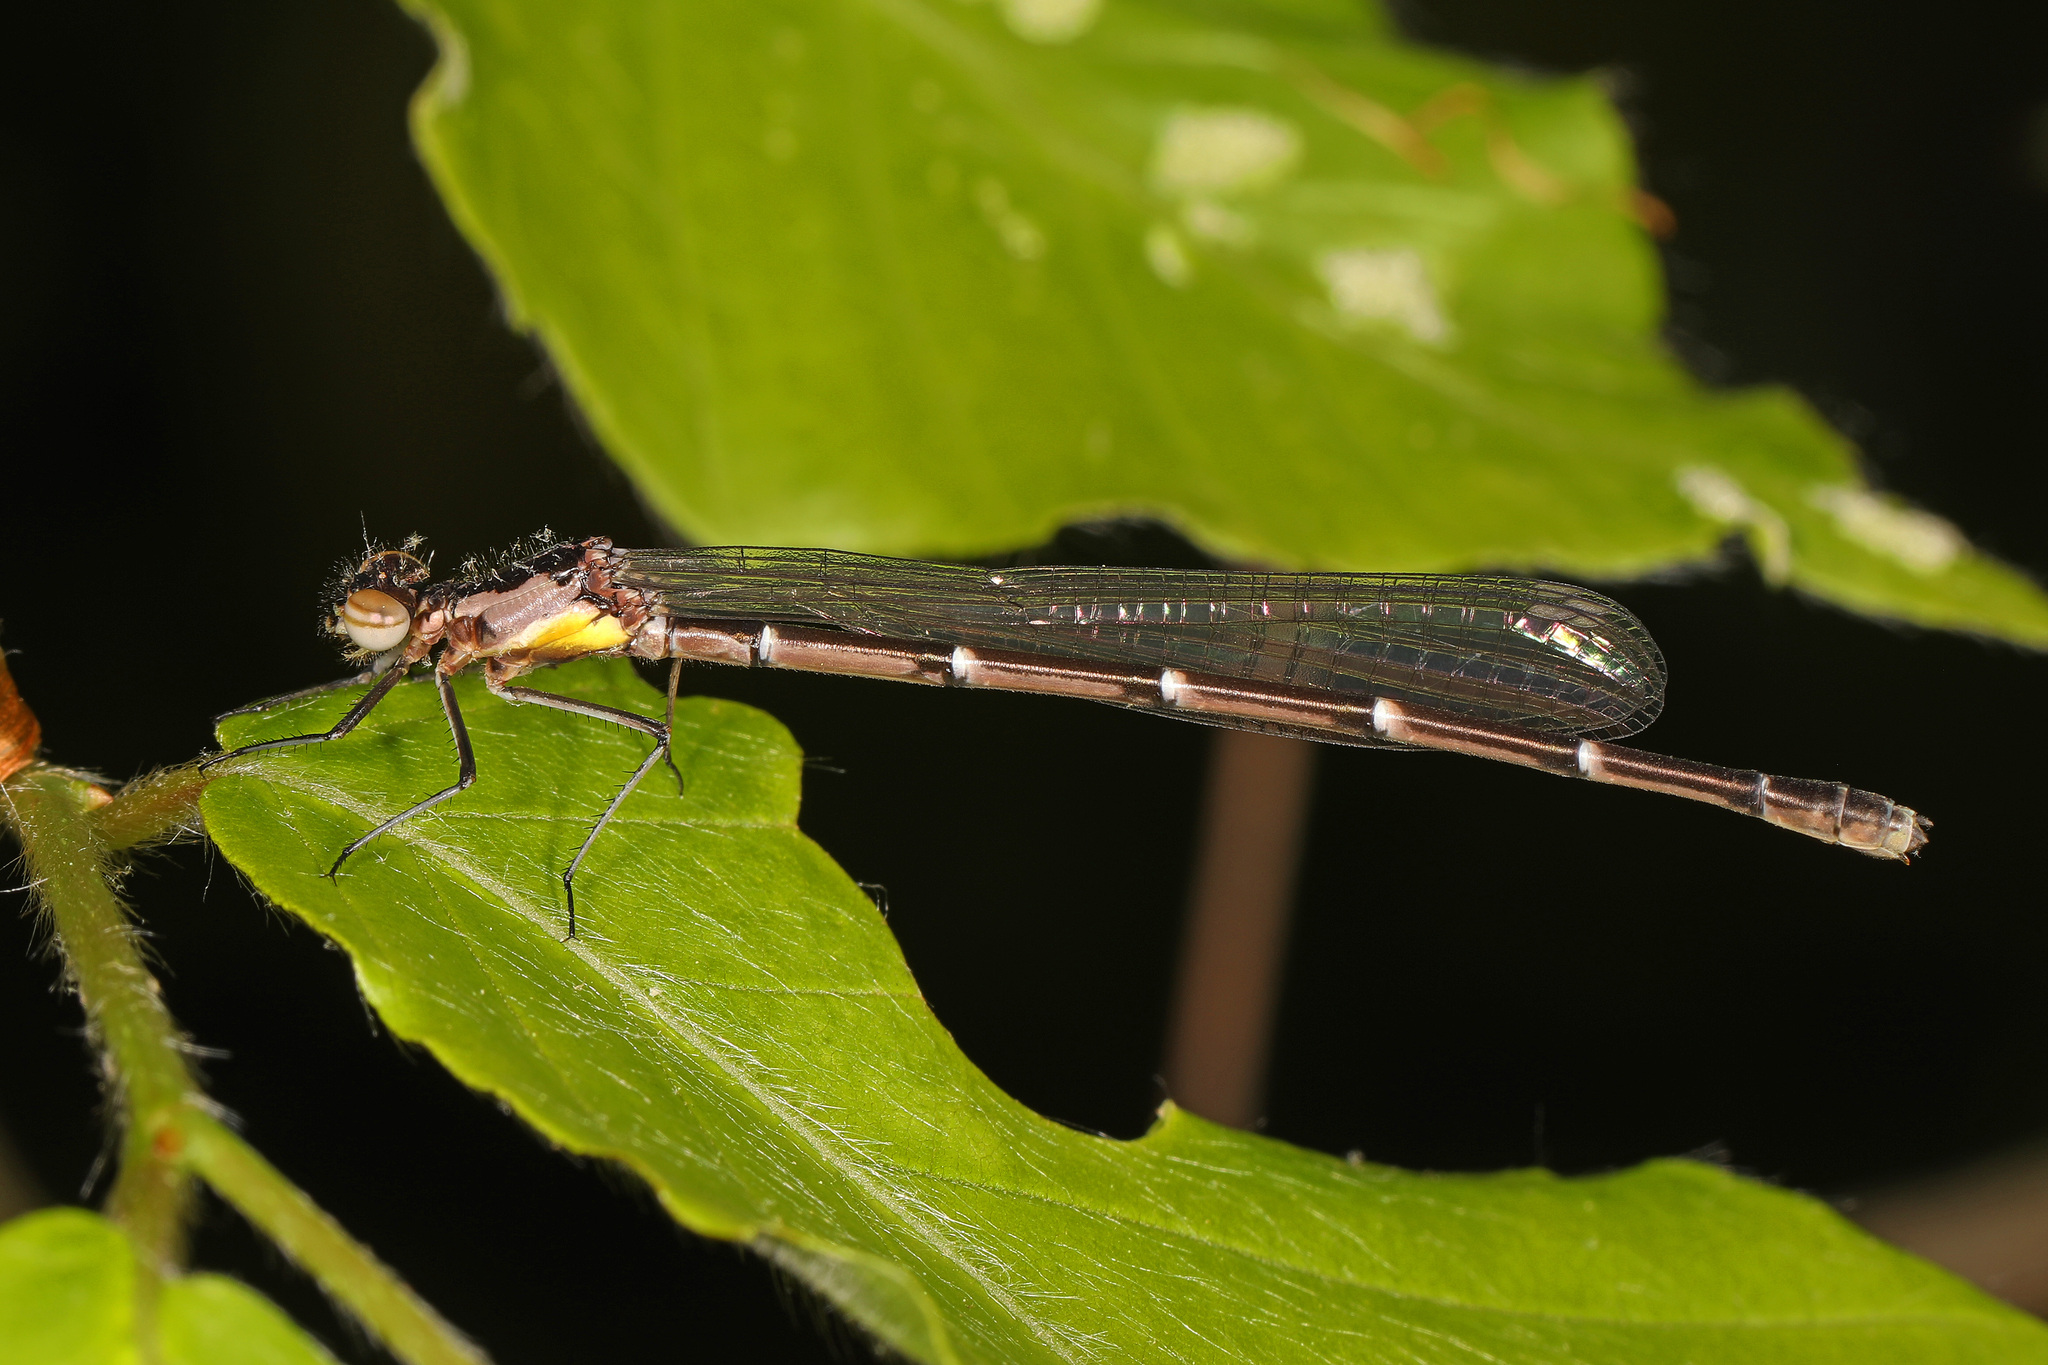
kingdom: Animalia
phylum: Arthropoda
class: Insecta
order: Odonata
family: Coenagrionidae
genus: Chromagrion
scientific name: Chromagrion conditum
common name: Aurora damsel
